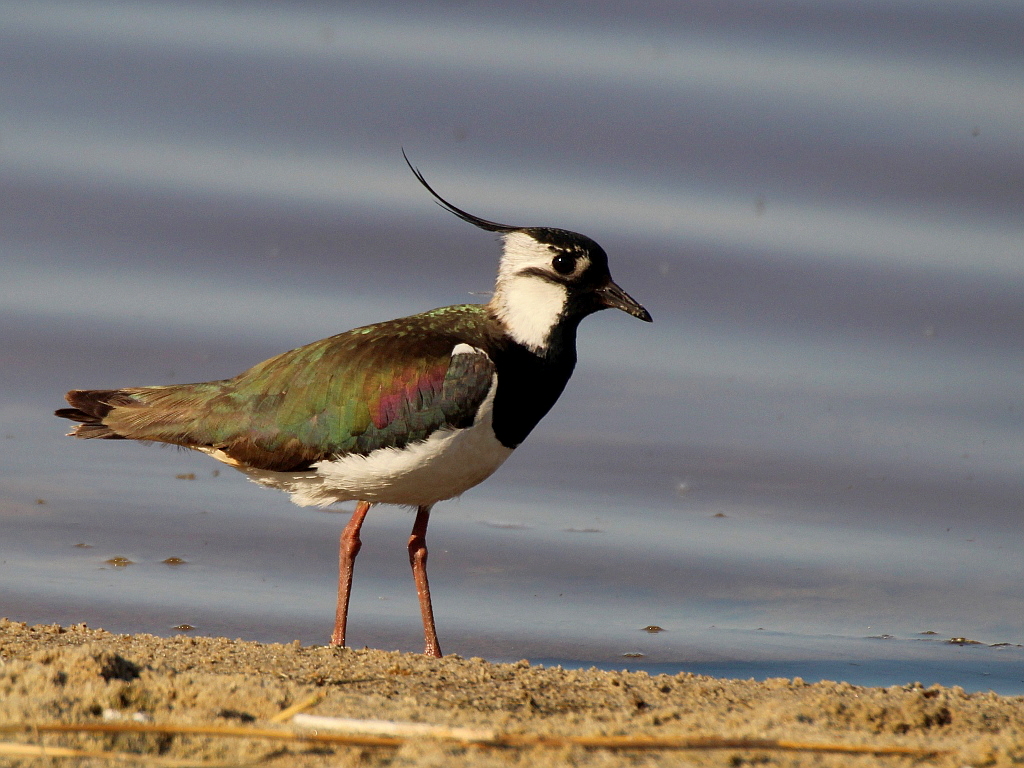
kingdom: Animalia
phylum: Chordata
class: Aves
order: Charadriiformes
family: Charadriidae
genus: Vanellus
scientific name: Vanellus vanellus
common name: Northern lapwing
